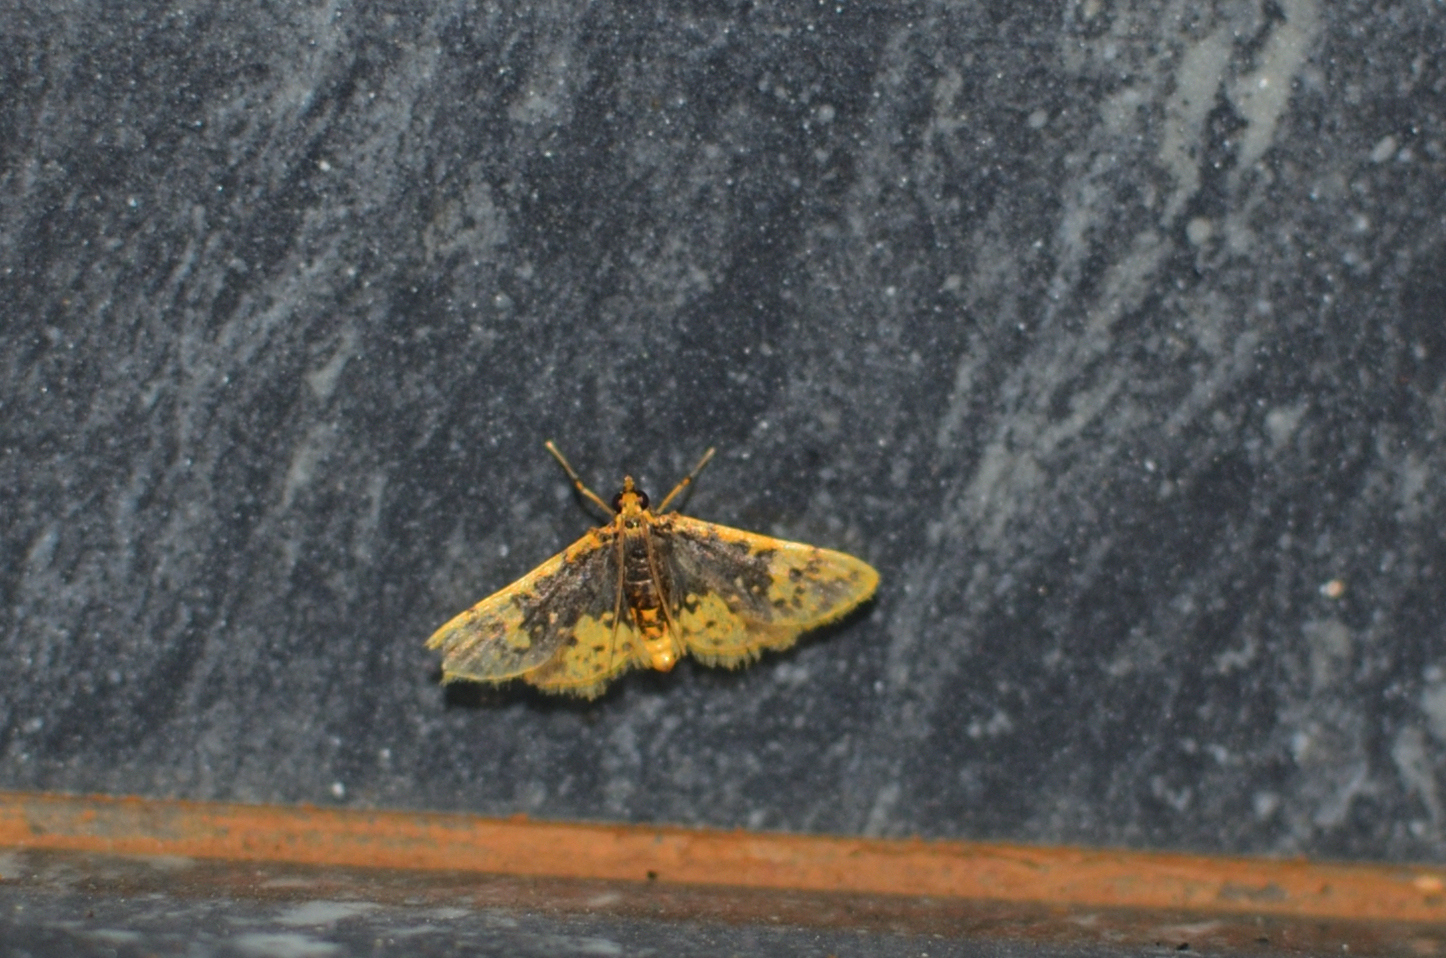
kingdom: Animalia
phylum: Arthropoda
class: Insecta
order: Lepidoptera
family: Crambidae
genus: Cynaeda
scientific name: Cynaeda
